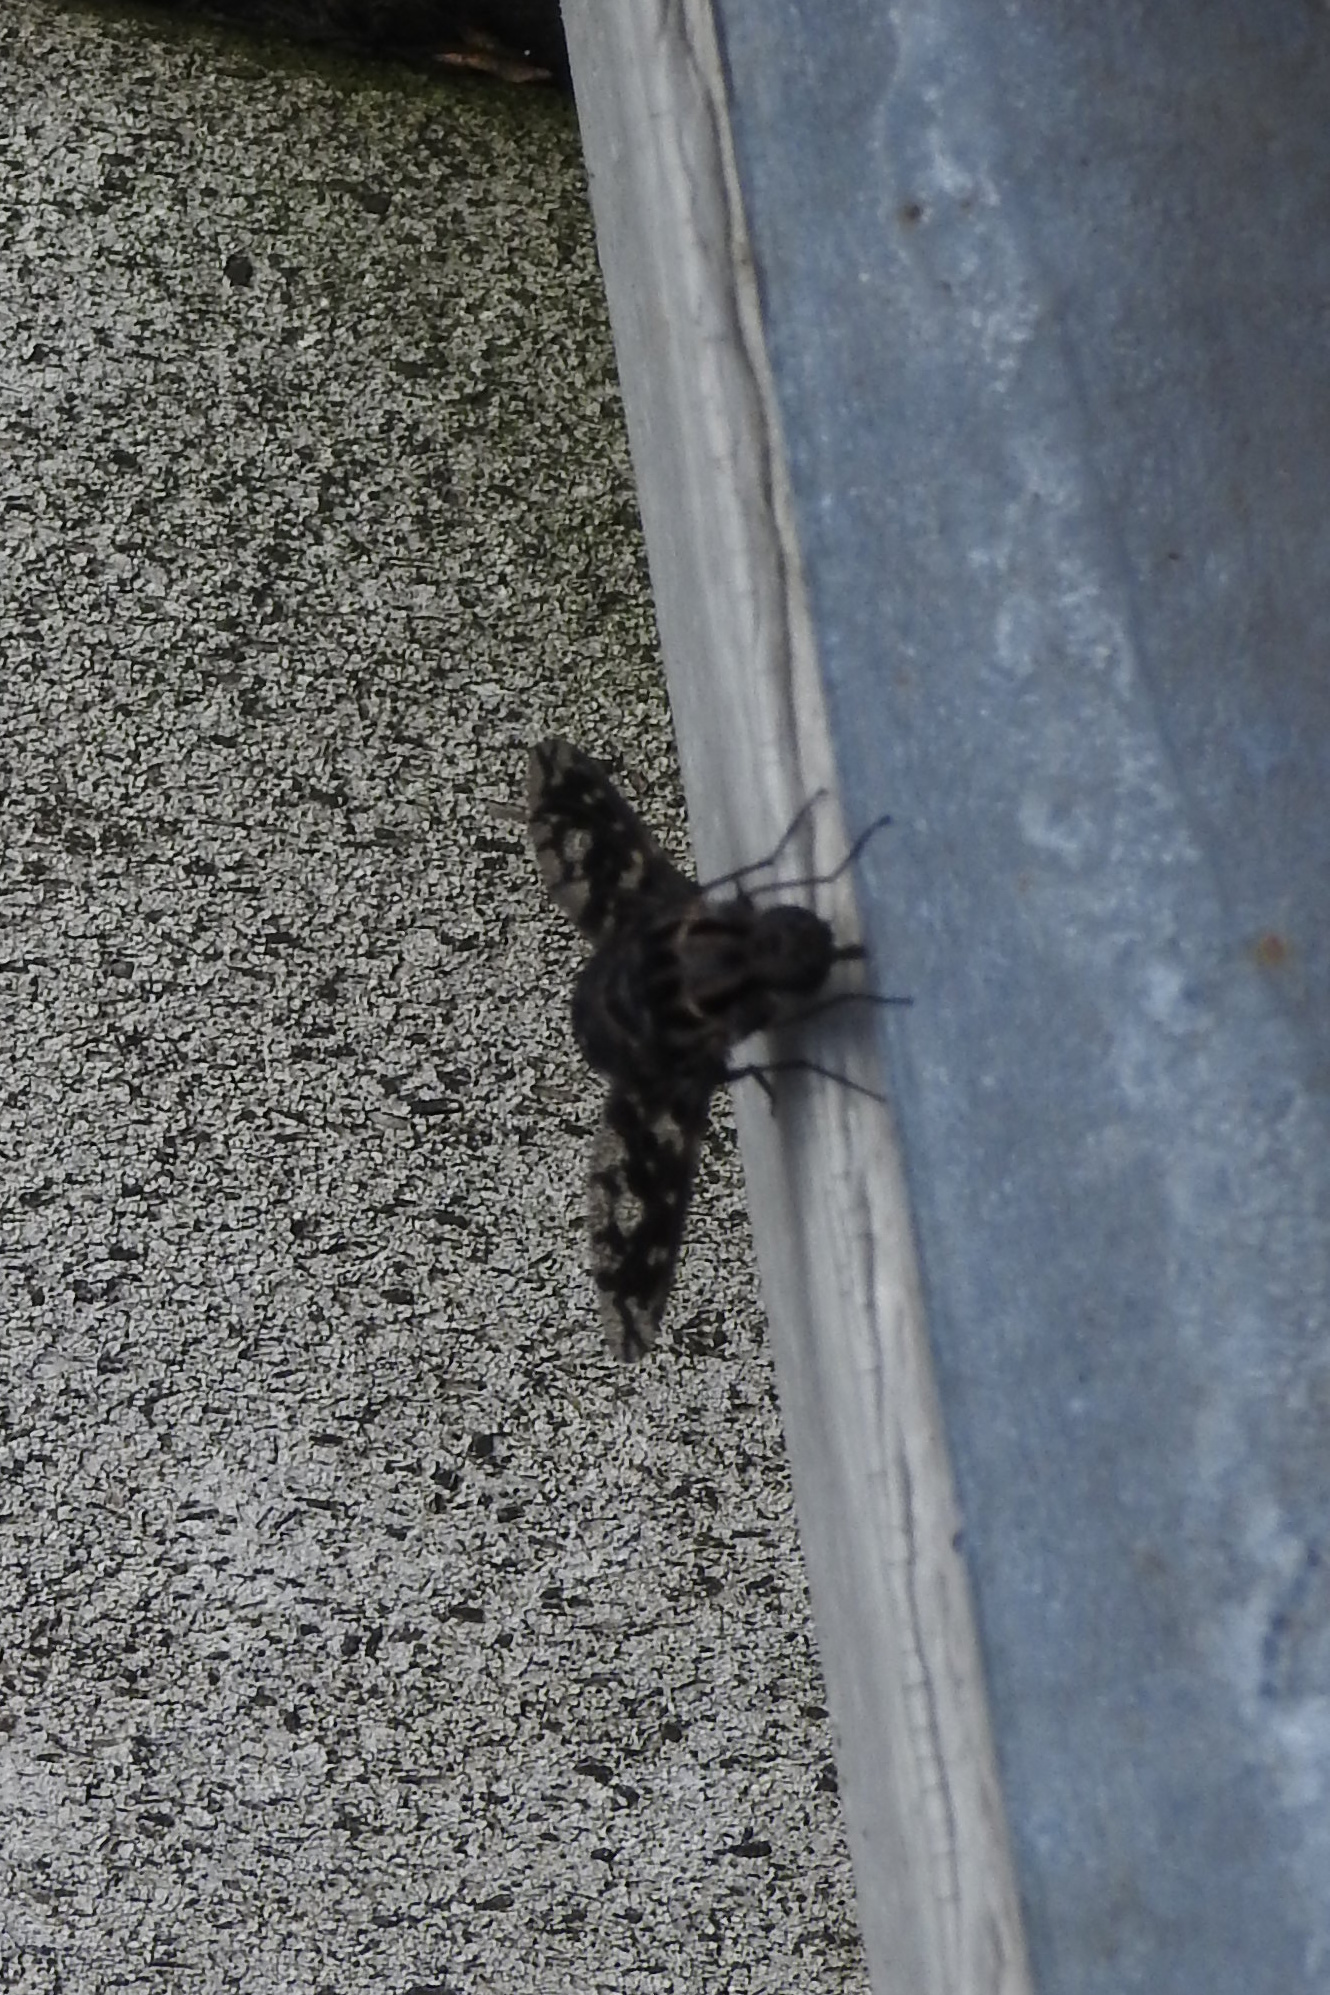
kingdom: Animalia
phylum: Arthropoda
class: Insecta
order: Diptera
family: Bombyliidae
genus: Xenox
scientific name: Xenox tigrinus
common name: Tiger bee fly
